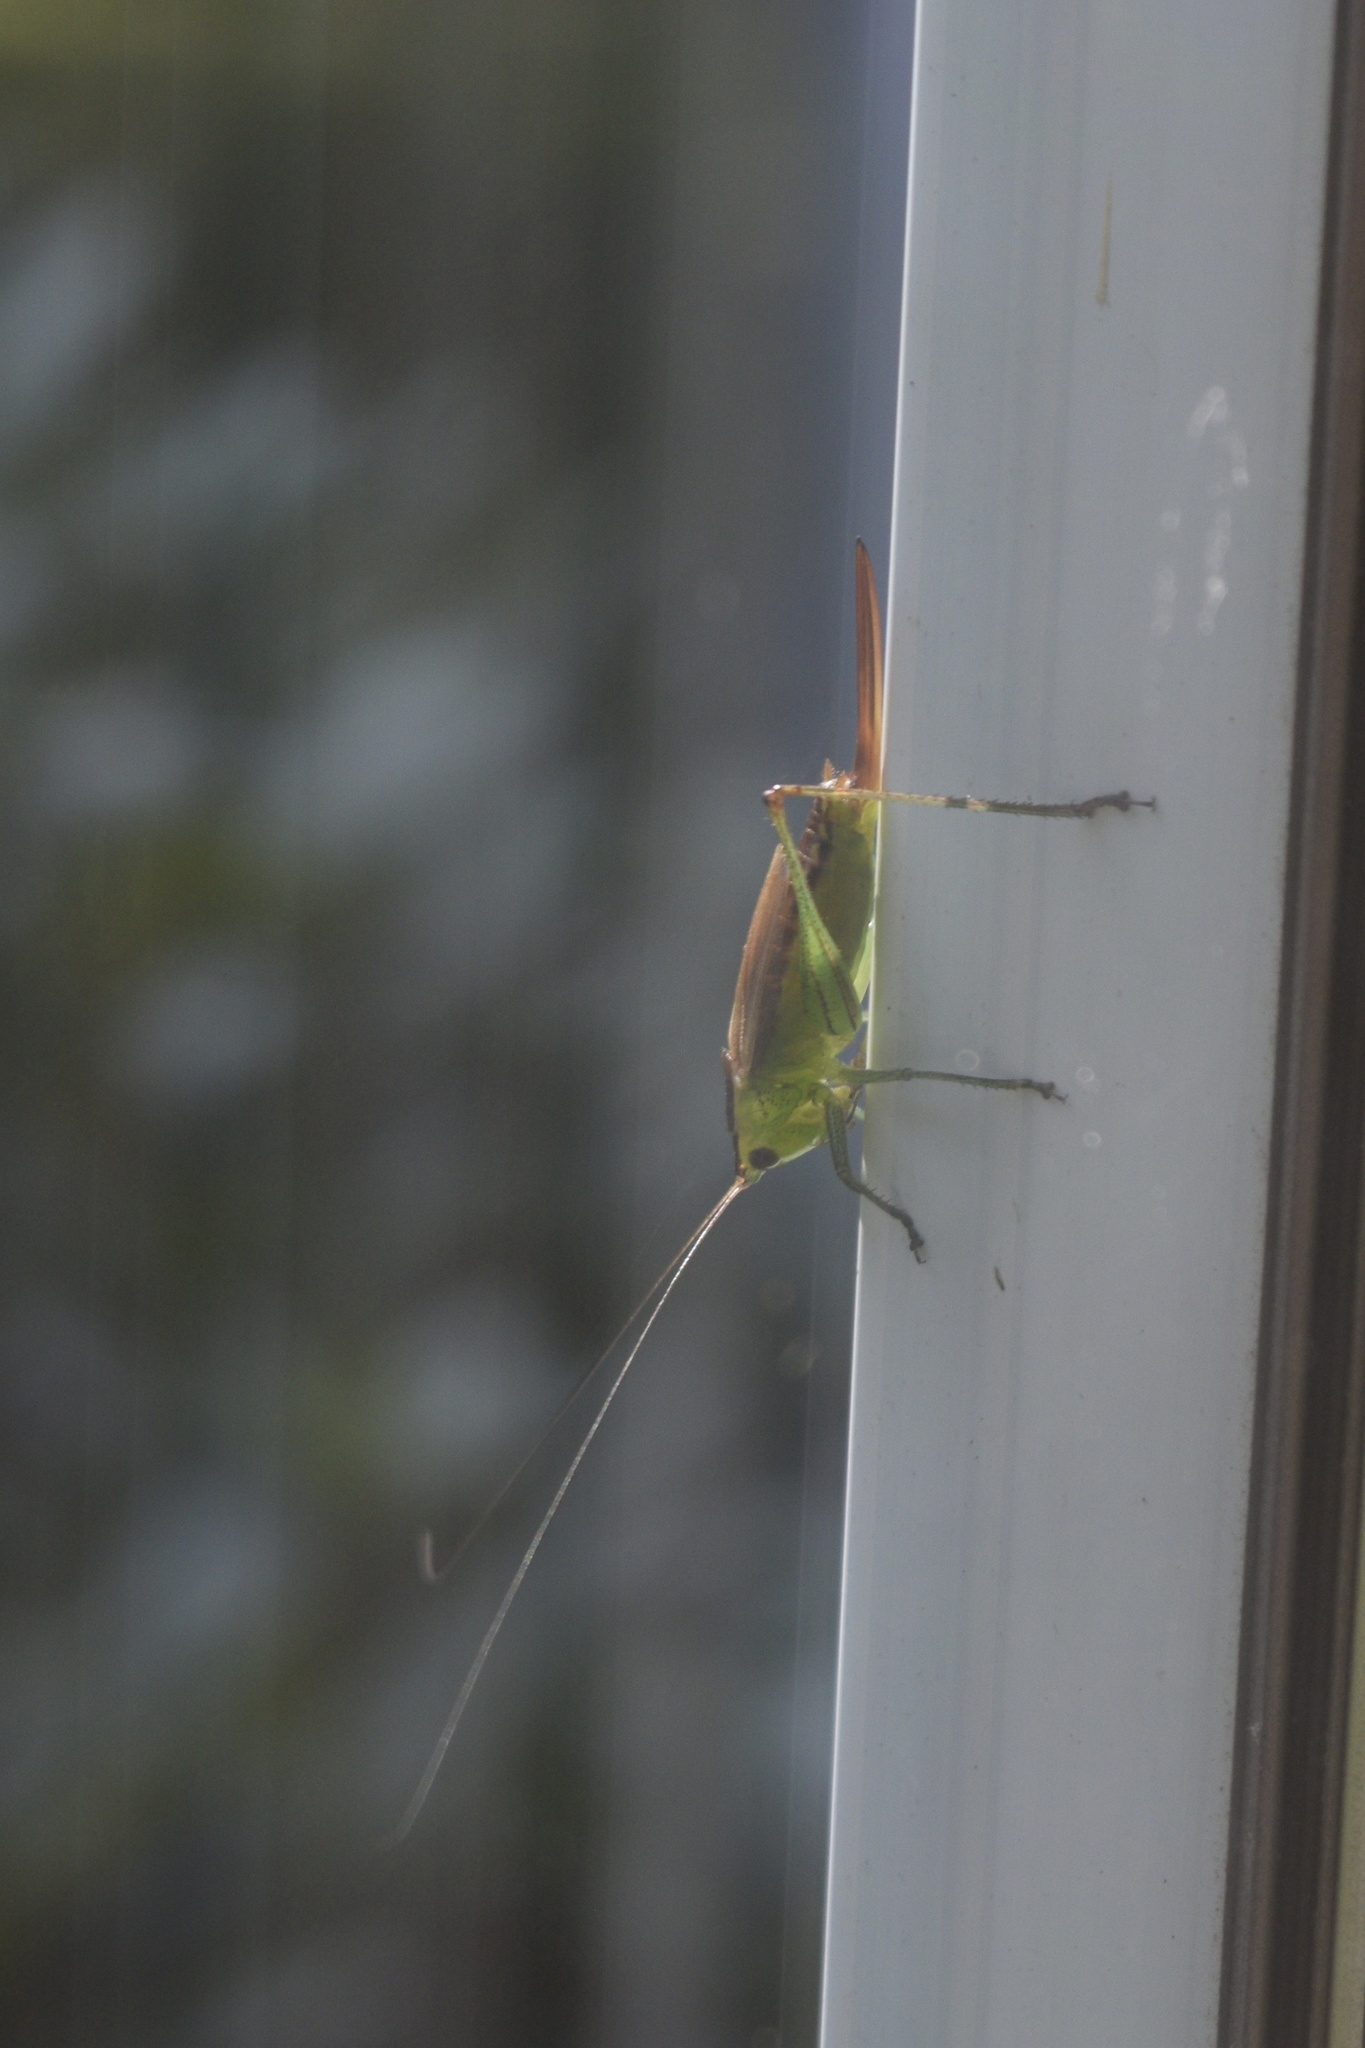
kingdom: Animalia
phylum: Arthropoda
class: Insecta
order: Orthoptera
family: Tettigoniidae
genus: Conocephalus
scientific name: Conocephalus brevipennis
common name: Short-winged meadow katydid
